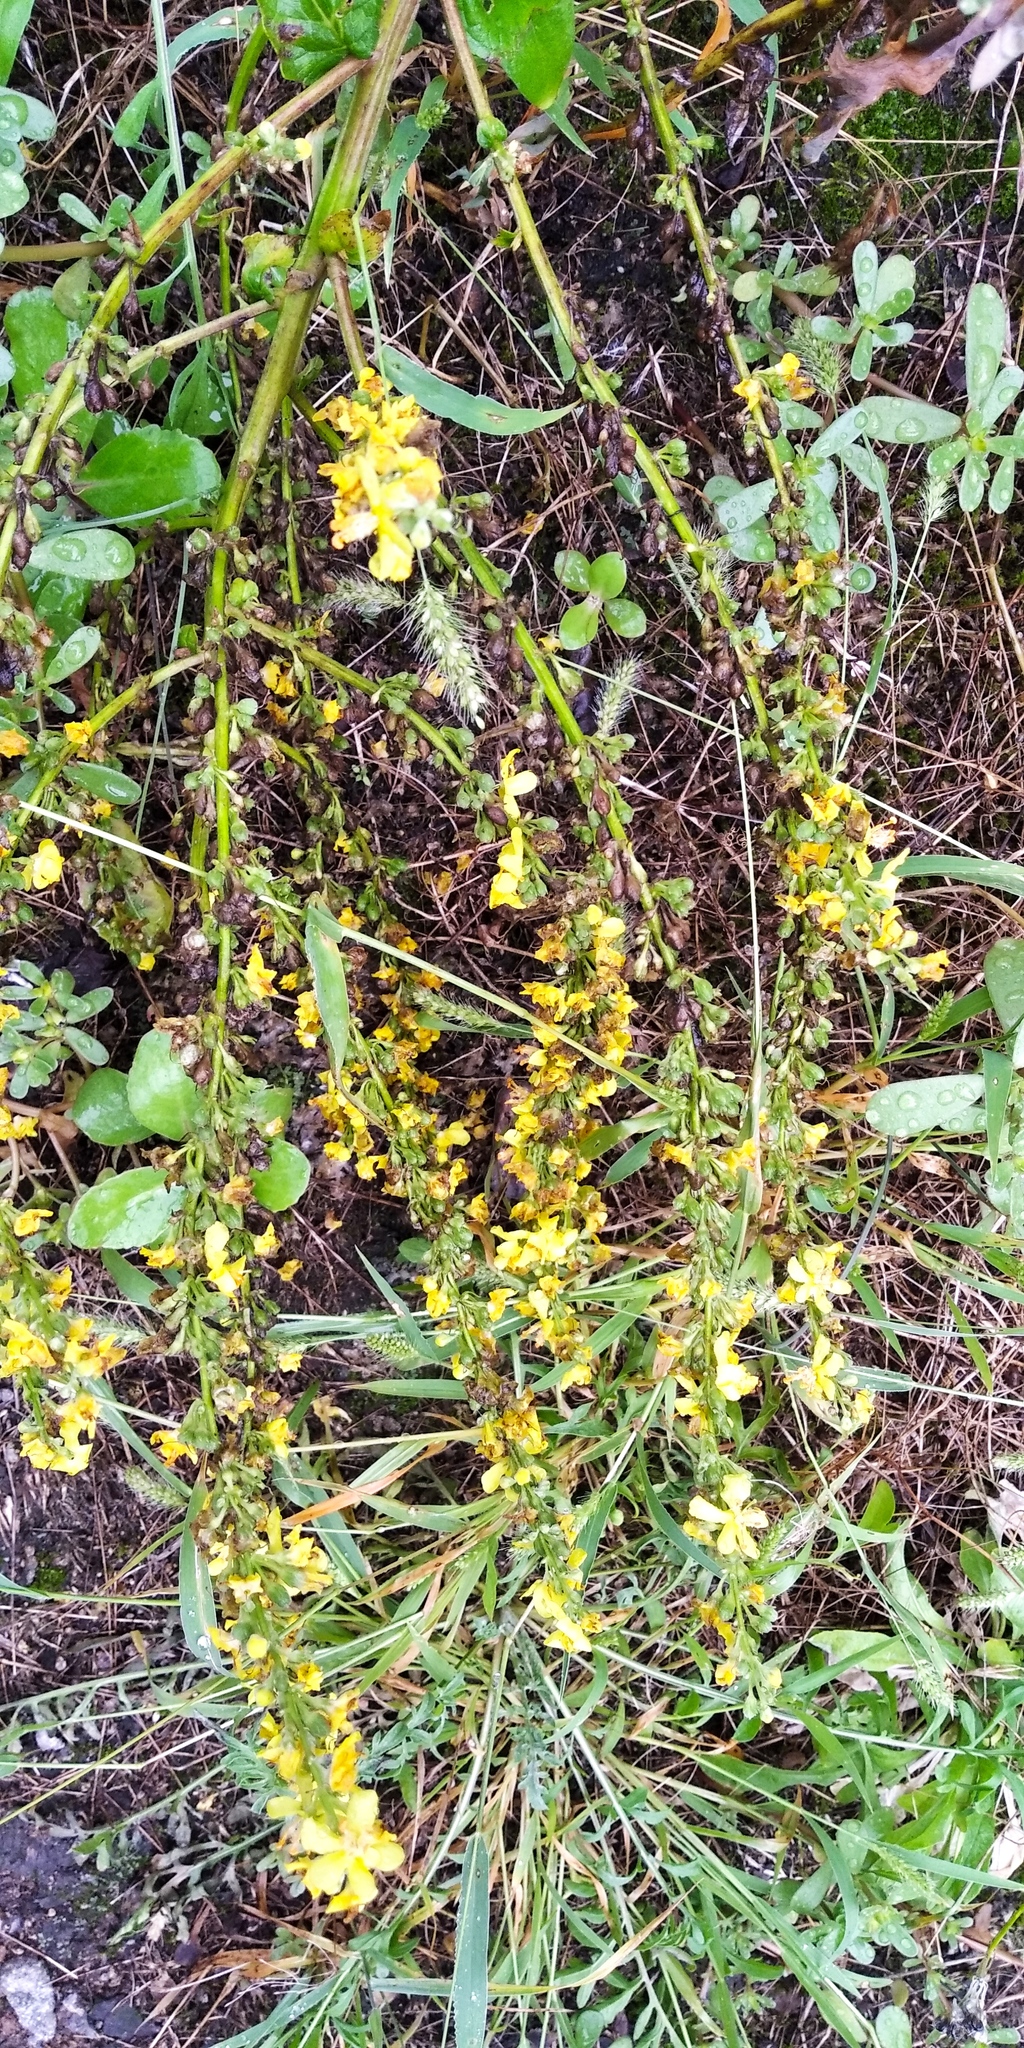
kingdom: Plantae
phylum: Tracheophyta
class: Magnoliopsida
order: Lamiales
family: Scrophulariaceae
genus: Verbascum
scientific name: Verbascum lychnitis
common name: White mullein
